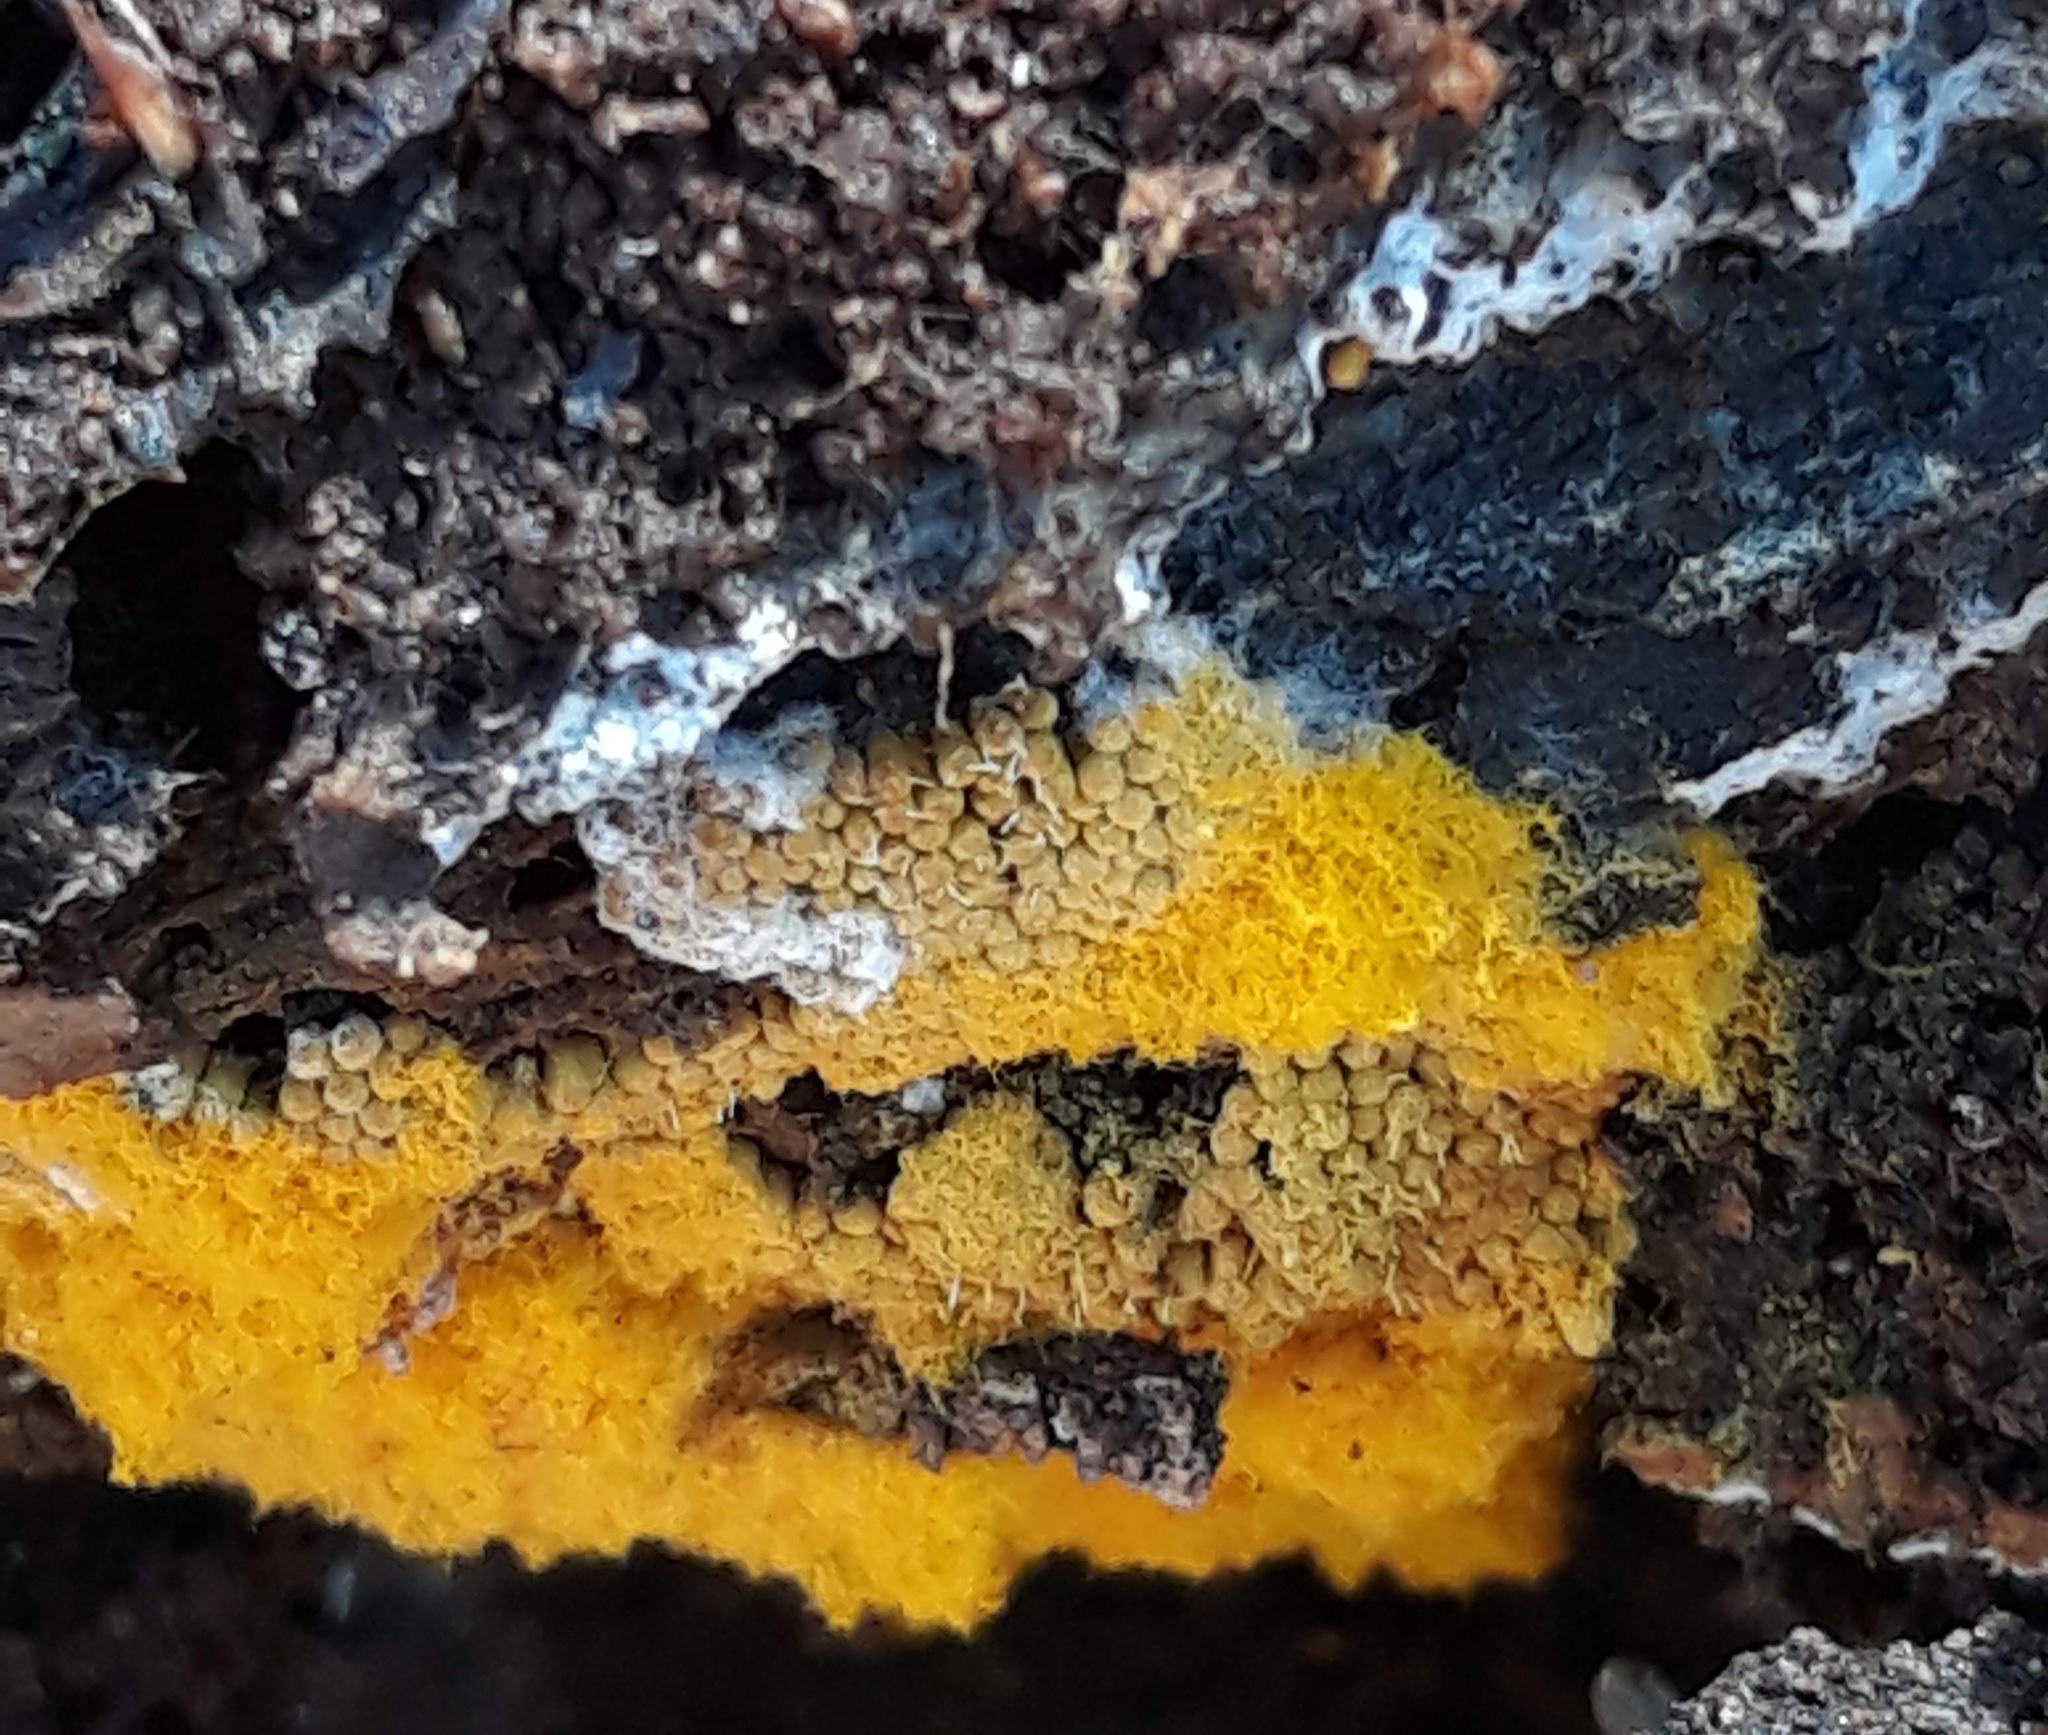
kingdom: Fungi
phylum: Ascomycota
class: Sordariomycetes
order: Hypocreales
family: Ophiocordycipitaceae
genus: Polycephalomyces
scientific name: Polycephalomyces tomentosus
